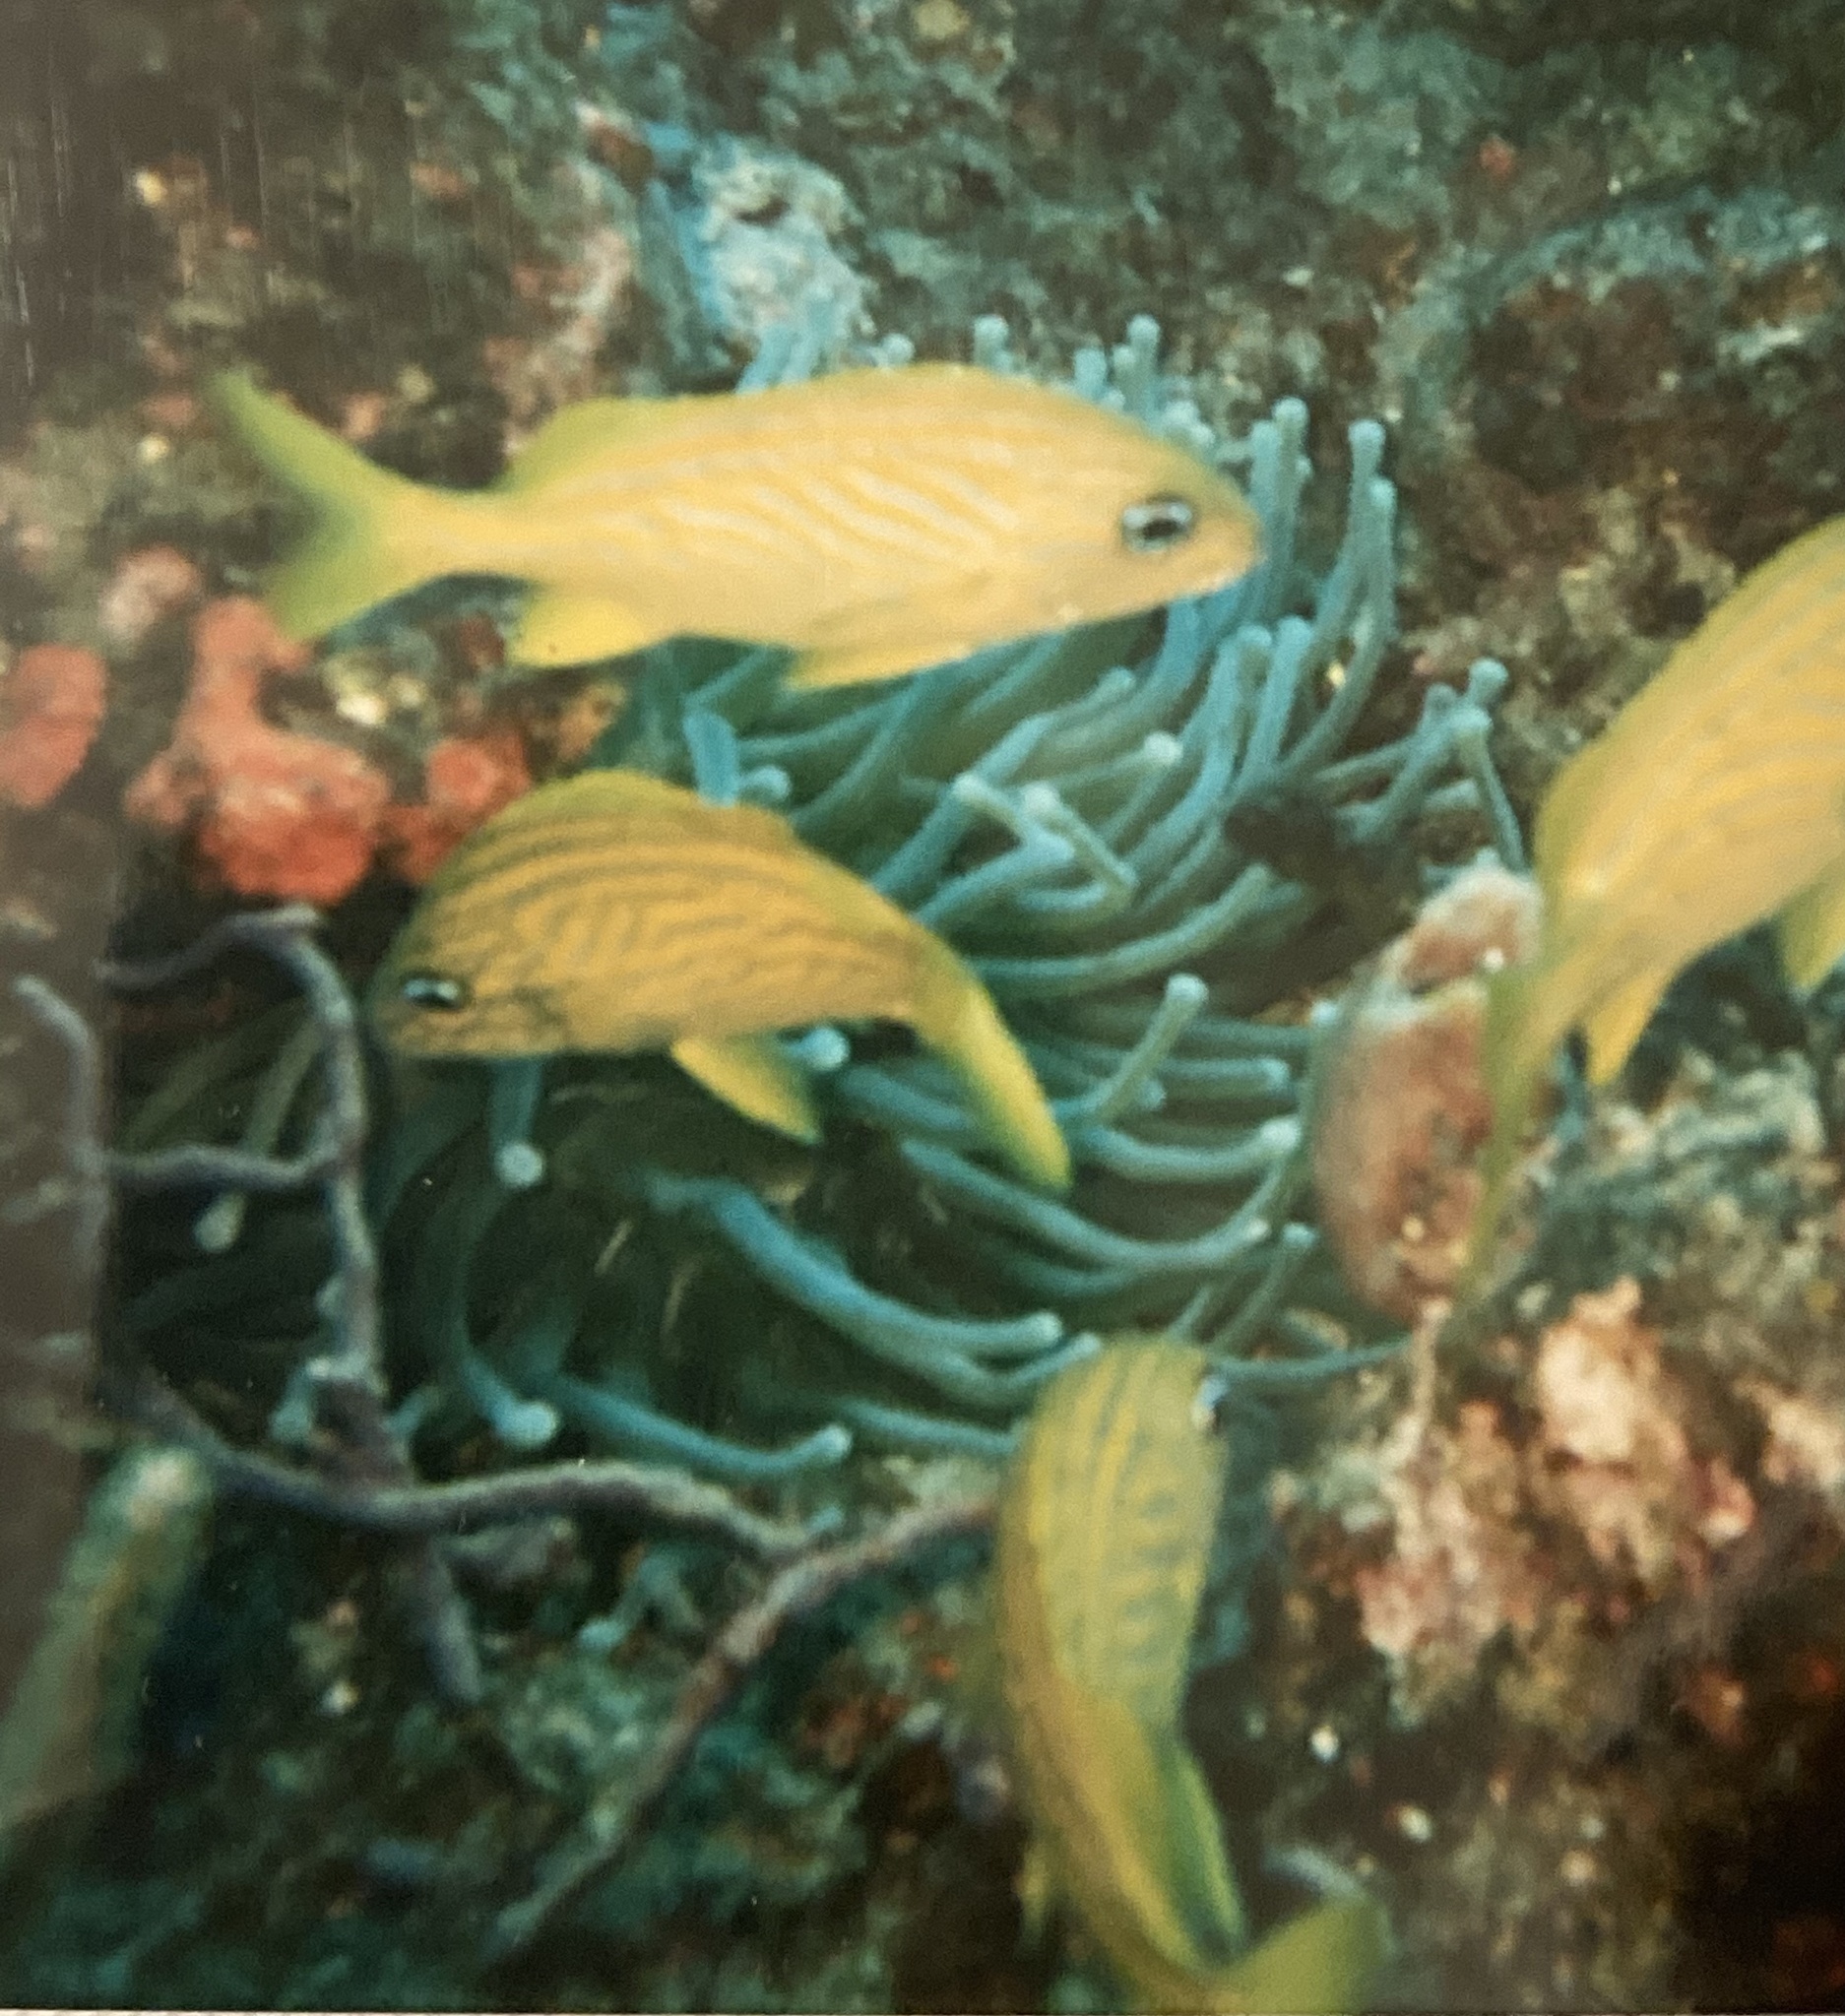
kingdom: Animalia
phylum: Chordata
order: Perciformes
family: Haemulidae
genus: Haemulon
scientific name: Haemulon flavolineatum
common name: French grunt
